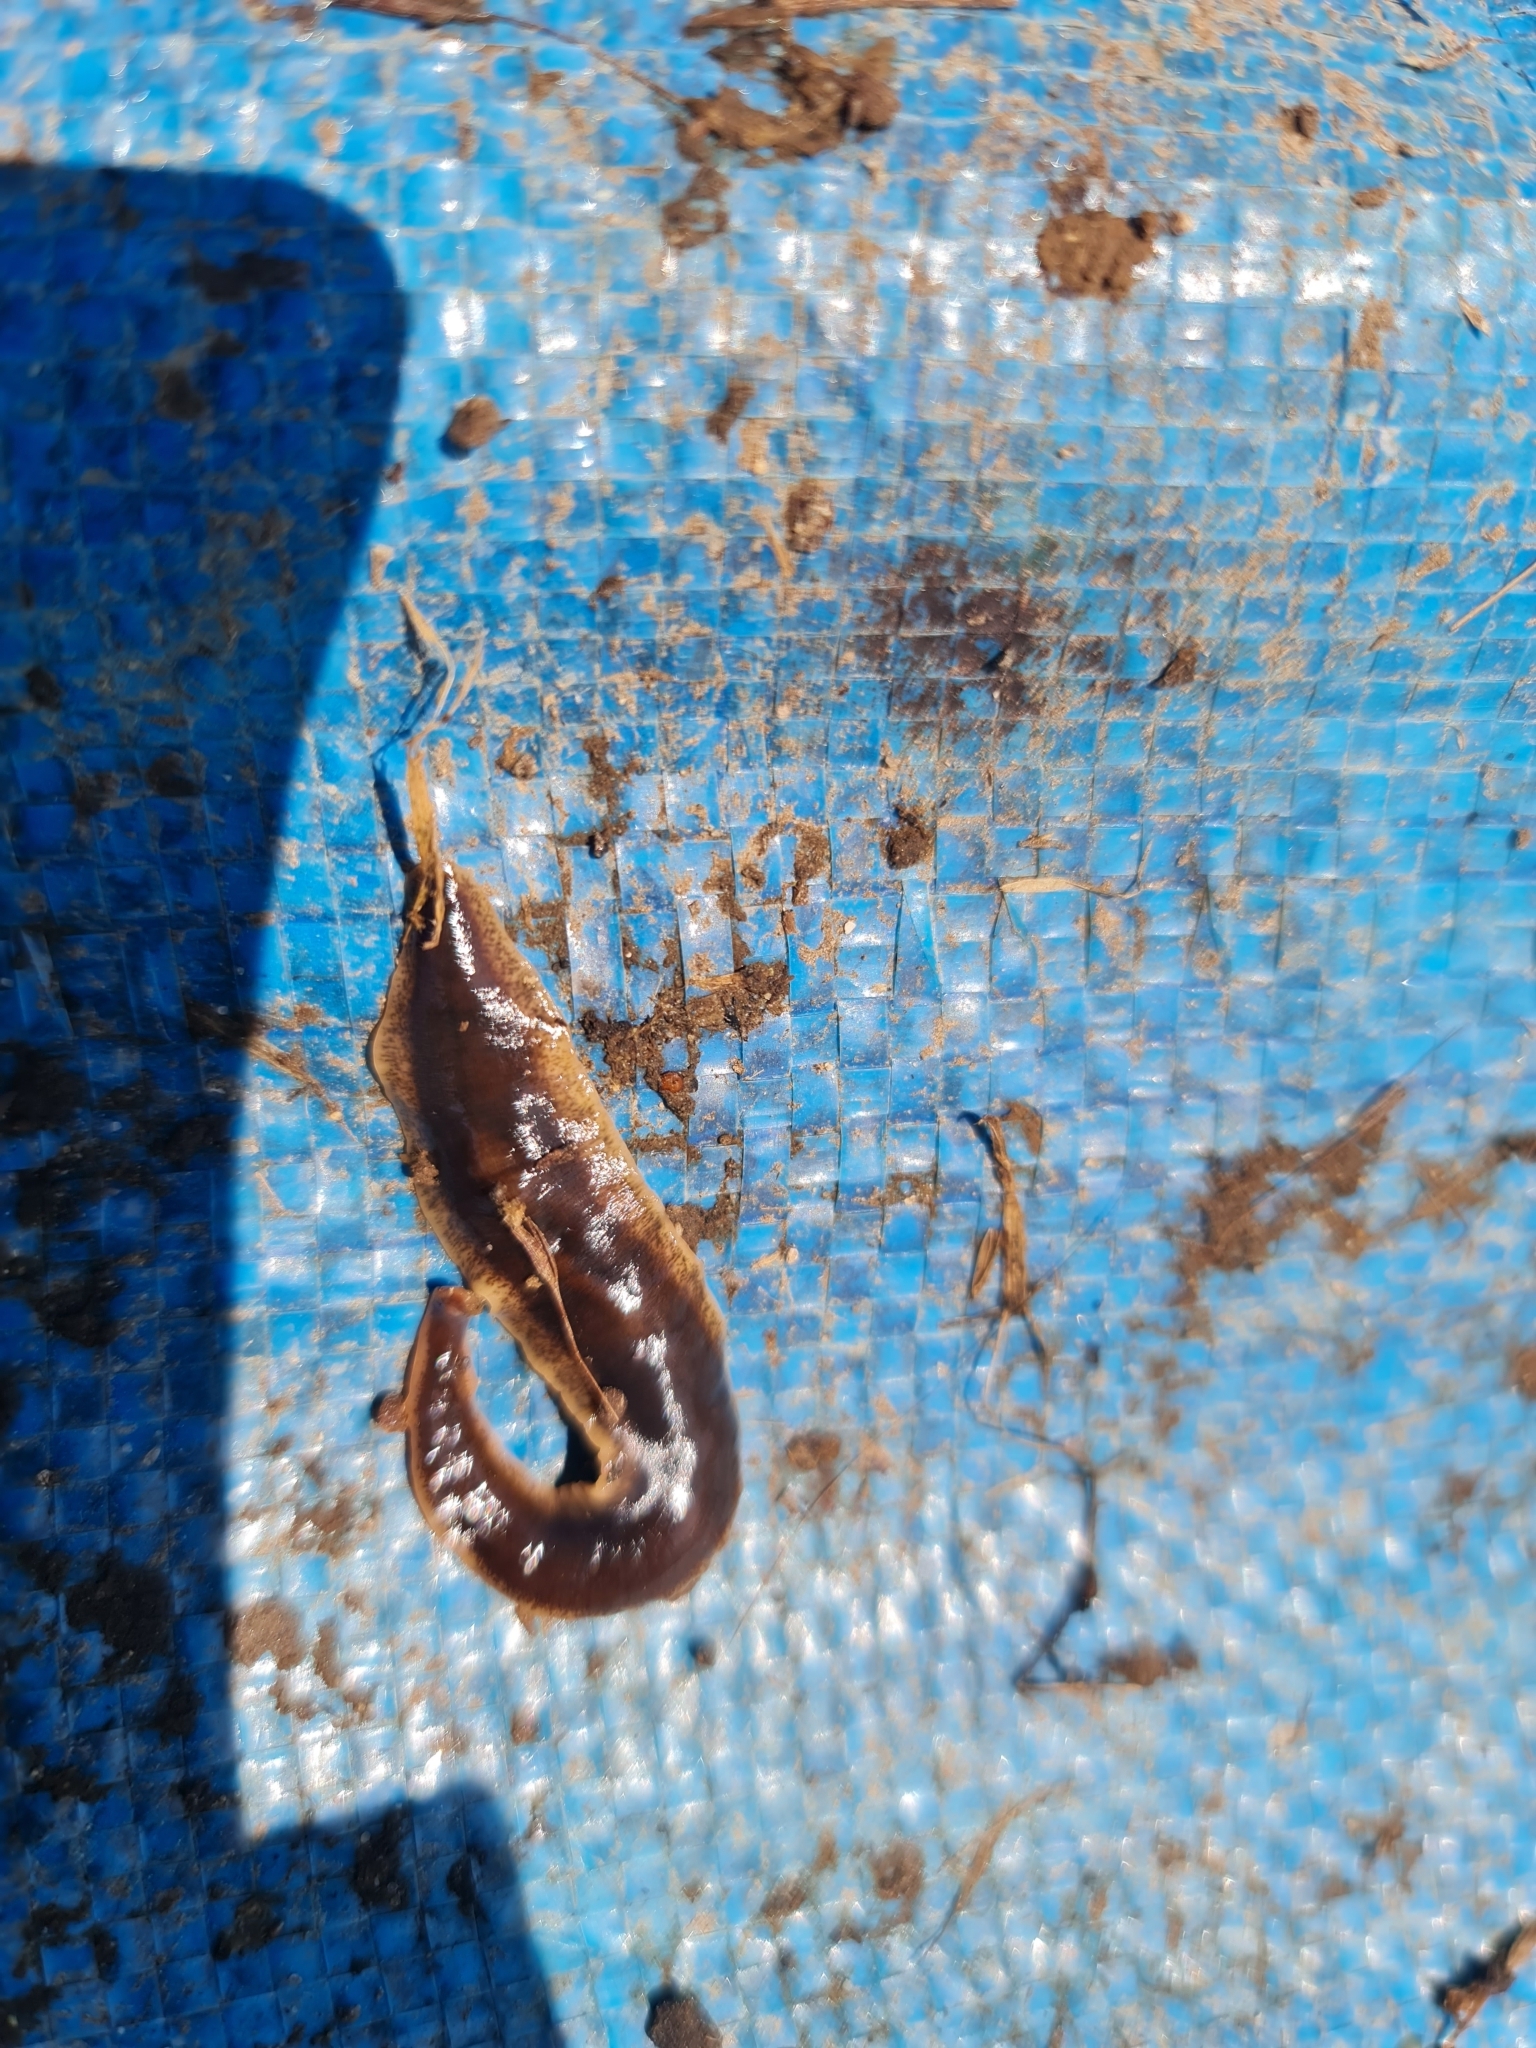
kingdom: Animalia
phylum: Platyhelminthes
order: Tricladida
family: Geoplanidae
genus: Arthurdendyus
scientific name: Arthurdendyus triangulatus
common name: New zealand flatworm
